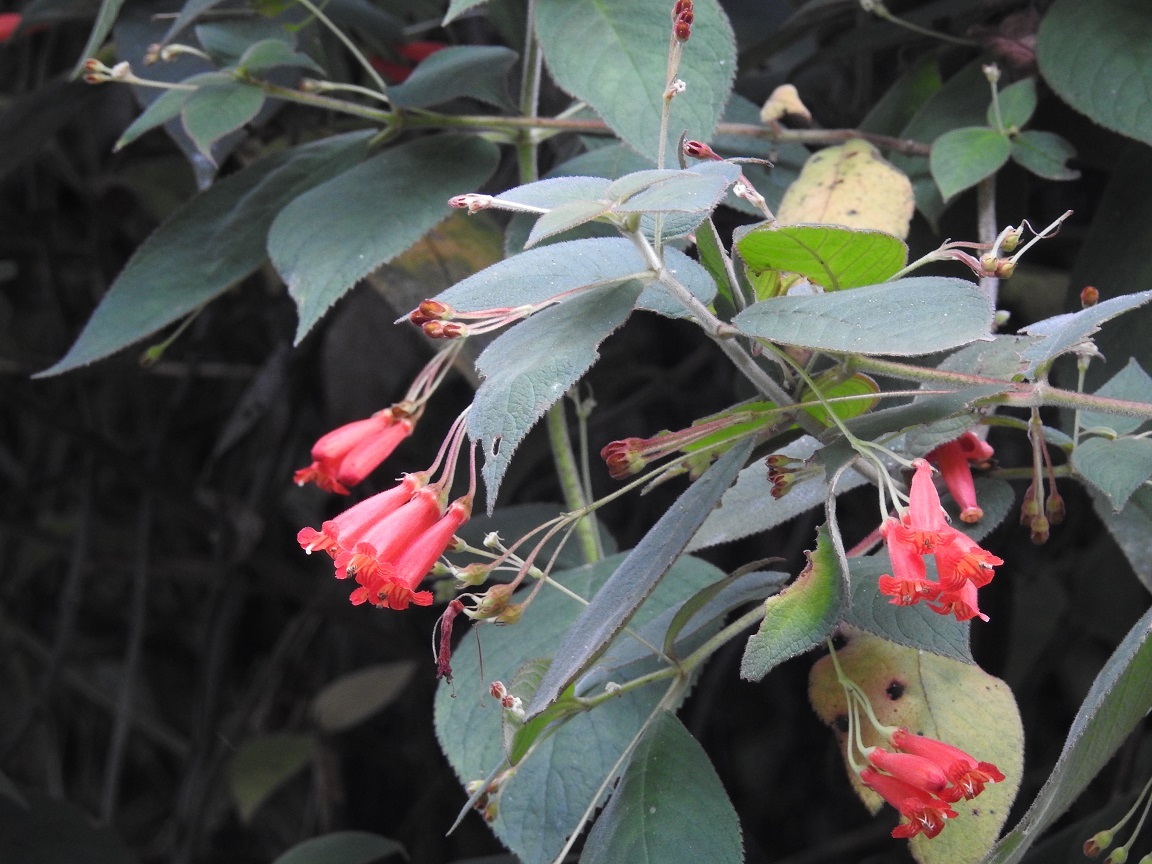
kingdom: Plantae
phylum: Tracheophyta
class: Magnoliopsida
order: Lamiales
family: Gesneriaceae
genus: Moussonia
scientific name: Moussonia deppeana
